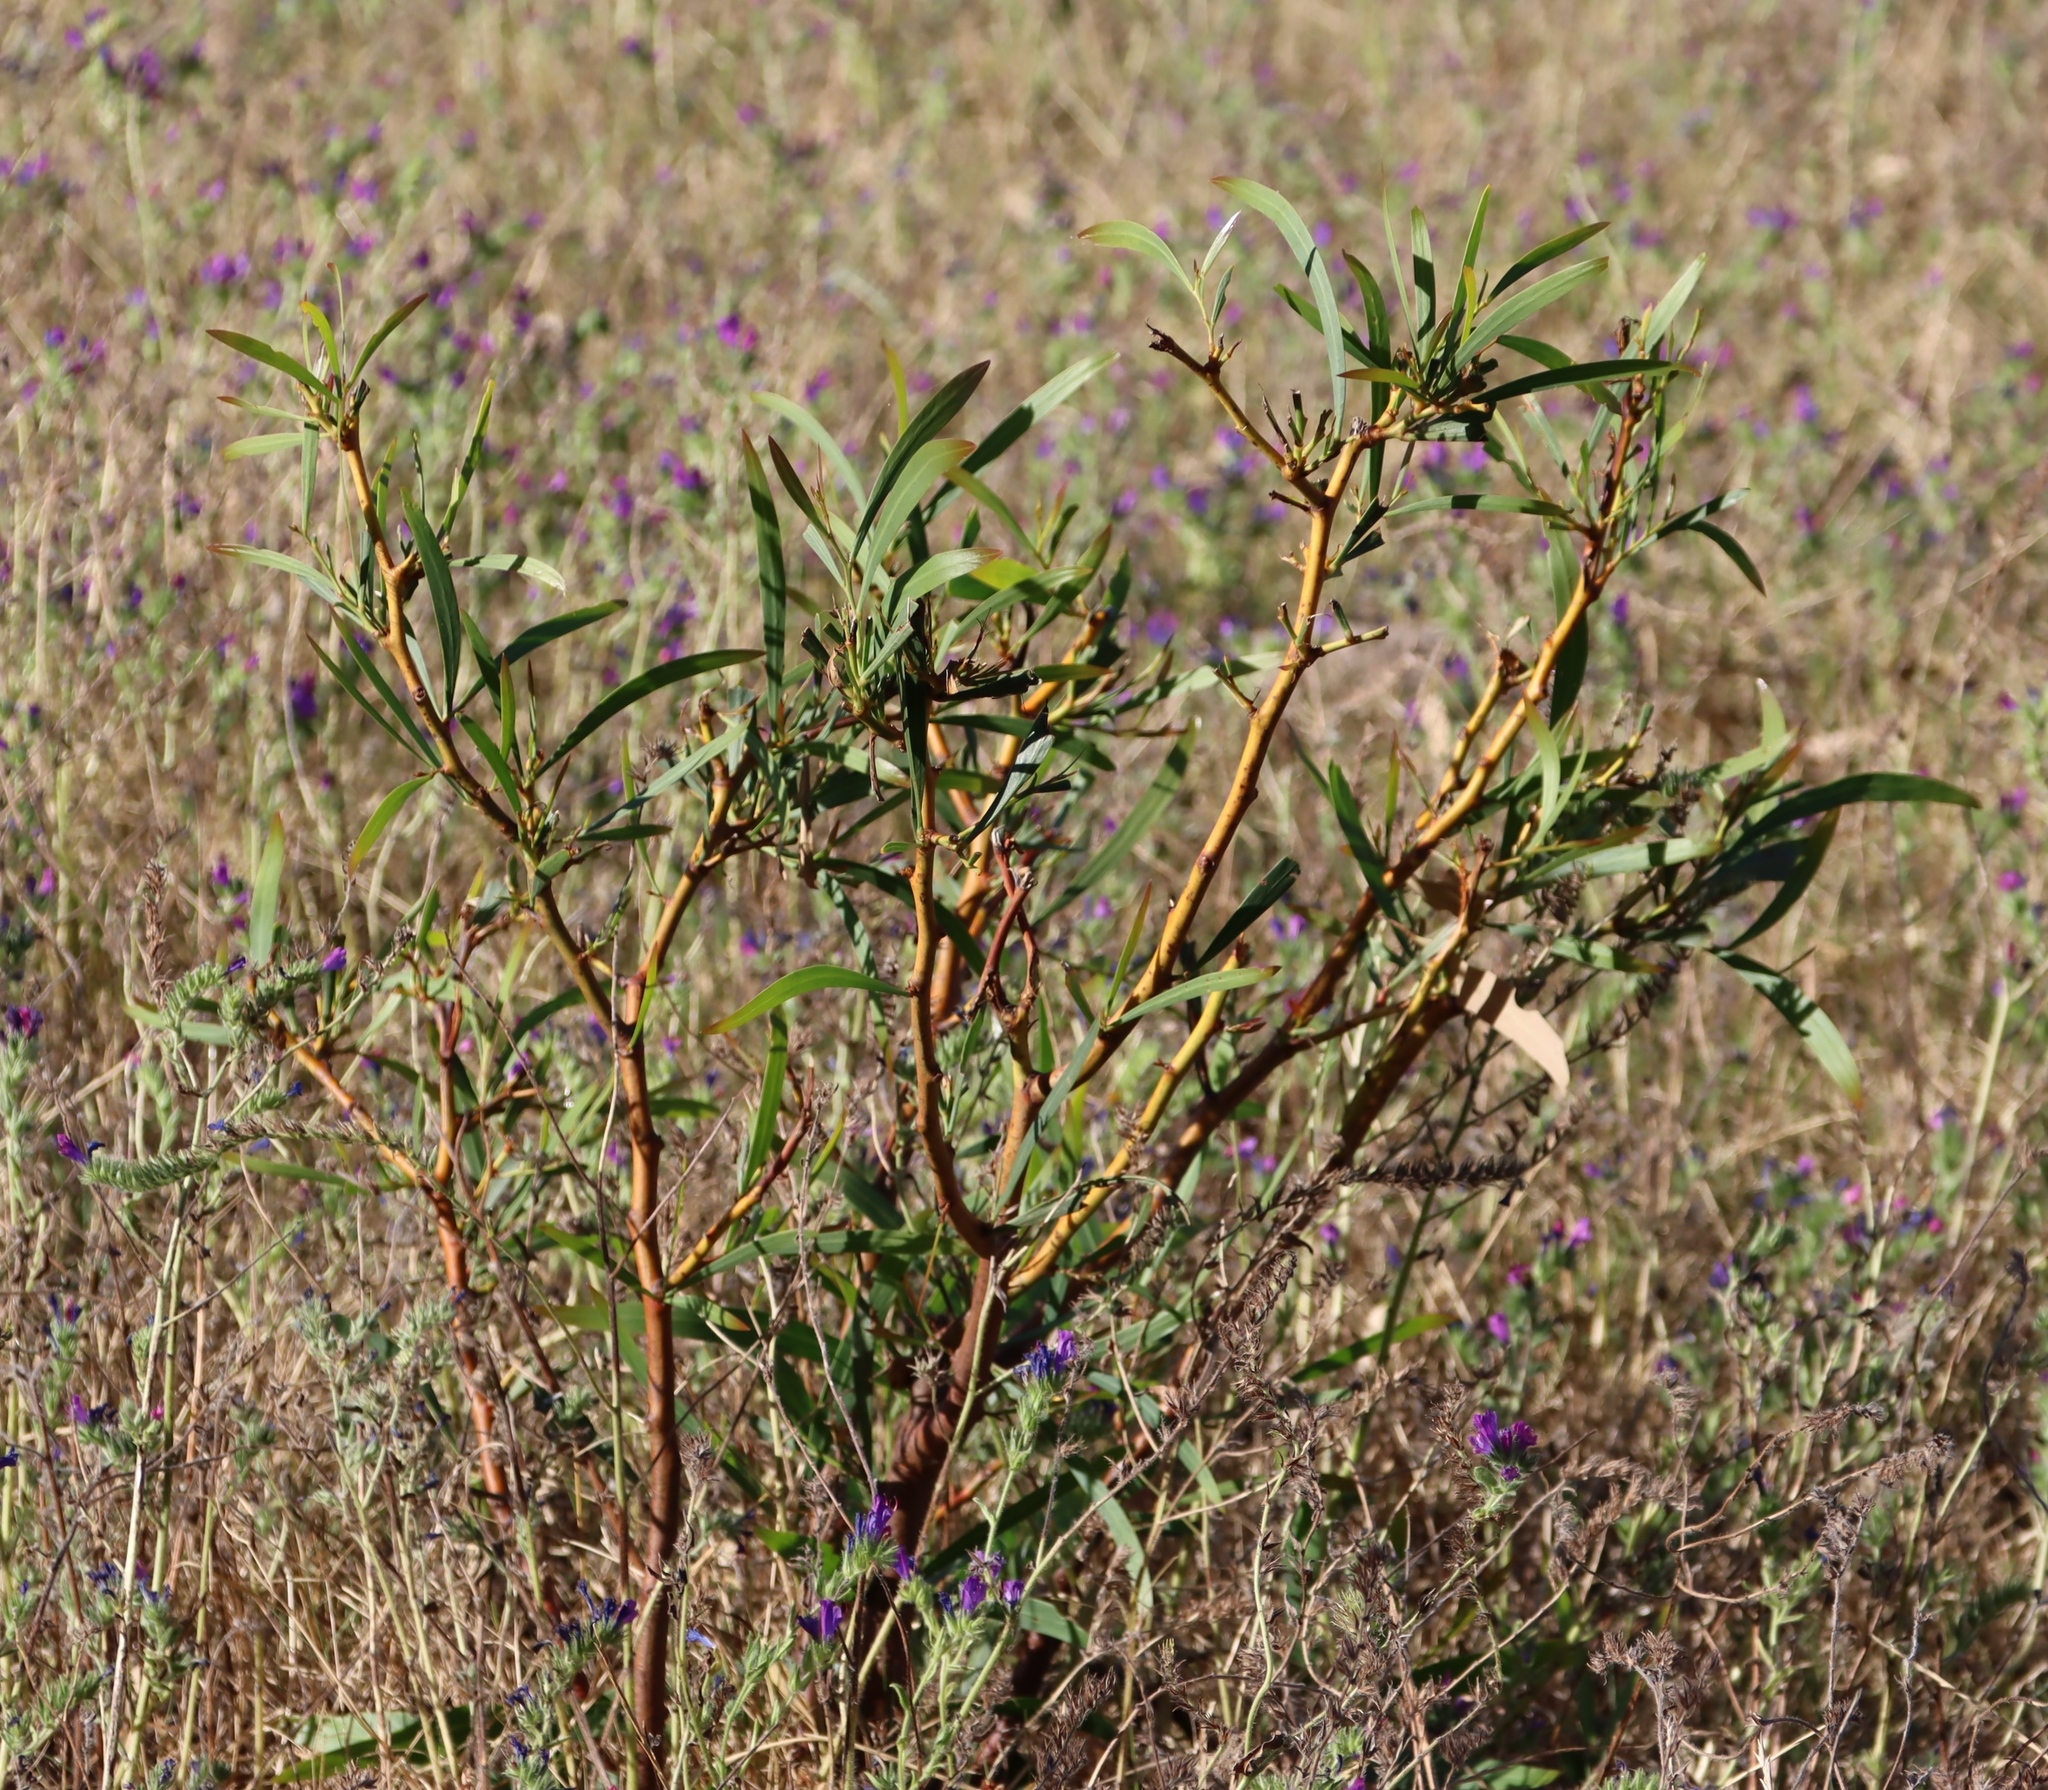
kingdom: Plantae
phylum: Tracheophyta
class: Magnoliopsida
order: Fabales
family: Fabaceae
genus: Acacia
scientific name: Acacia saligna
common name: Orange wattle
